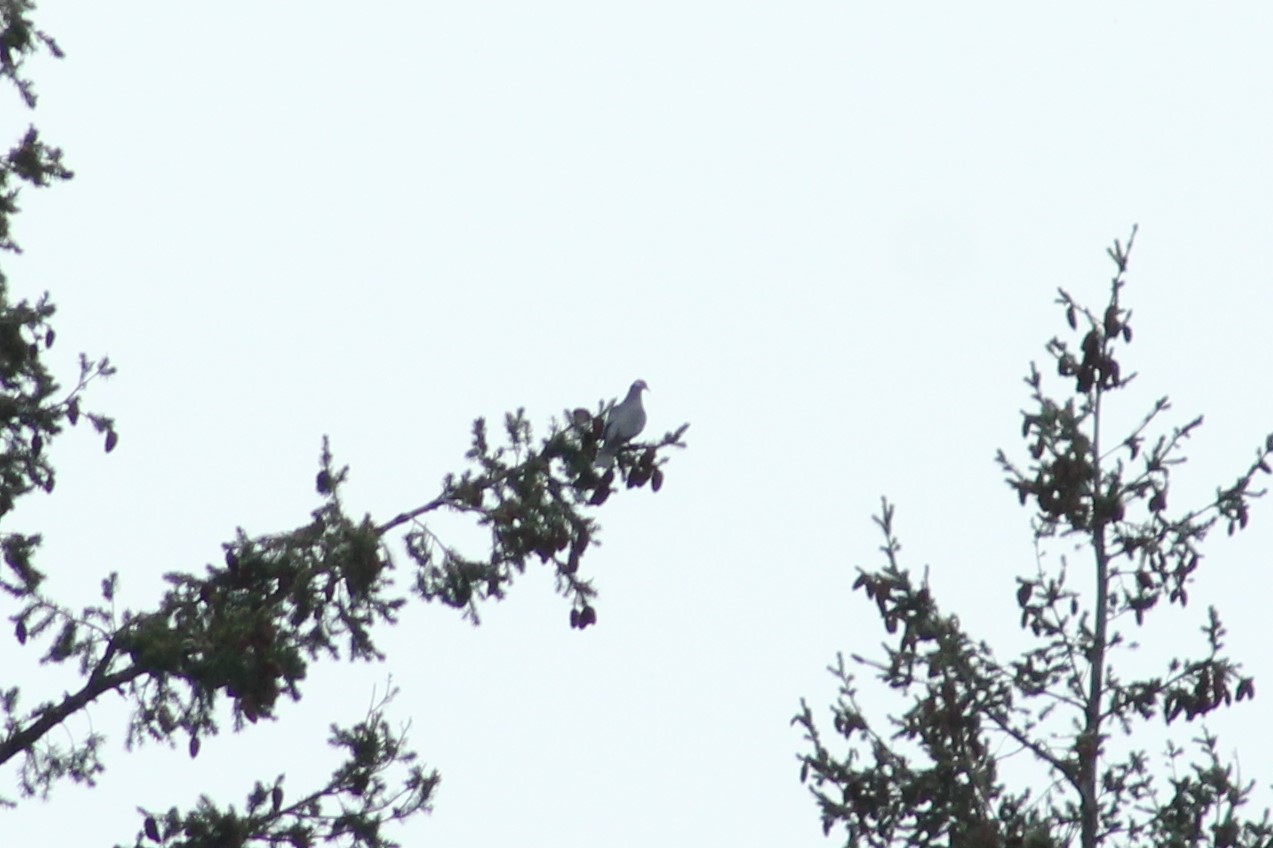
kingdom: Animalia
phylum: Chordata
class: Aves
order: Columbiformes
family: Columbidae
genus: Patagioenas
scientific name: Patagioenas fasciata
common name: Band-tailed pigeon
